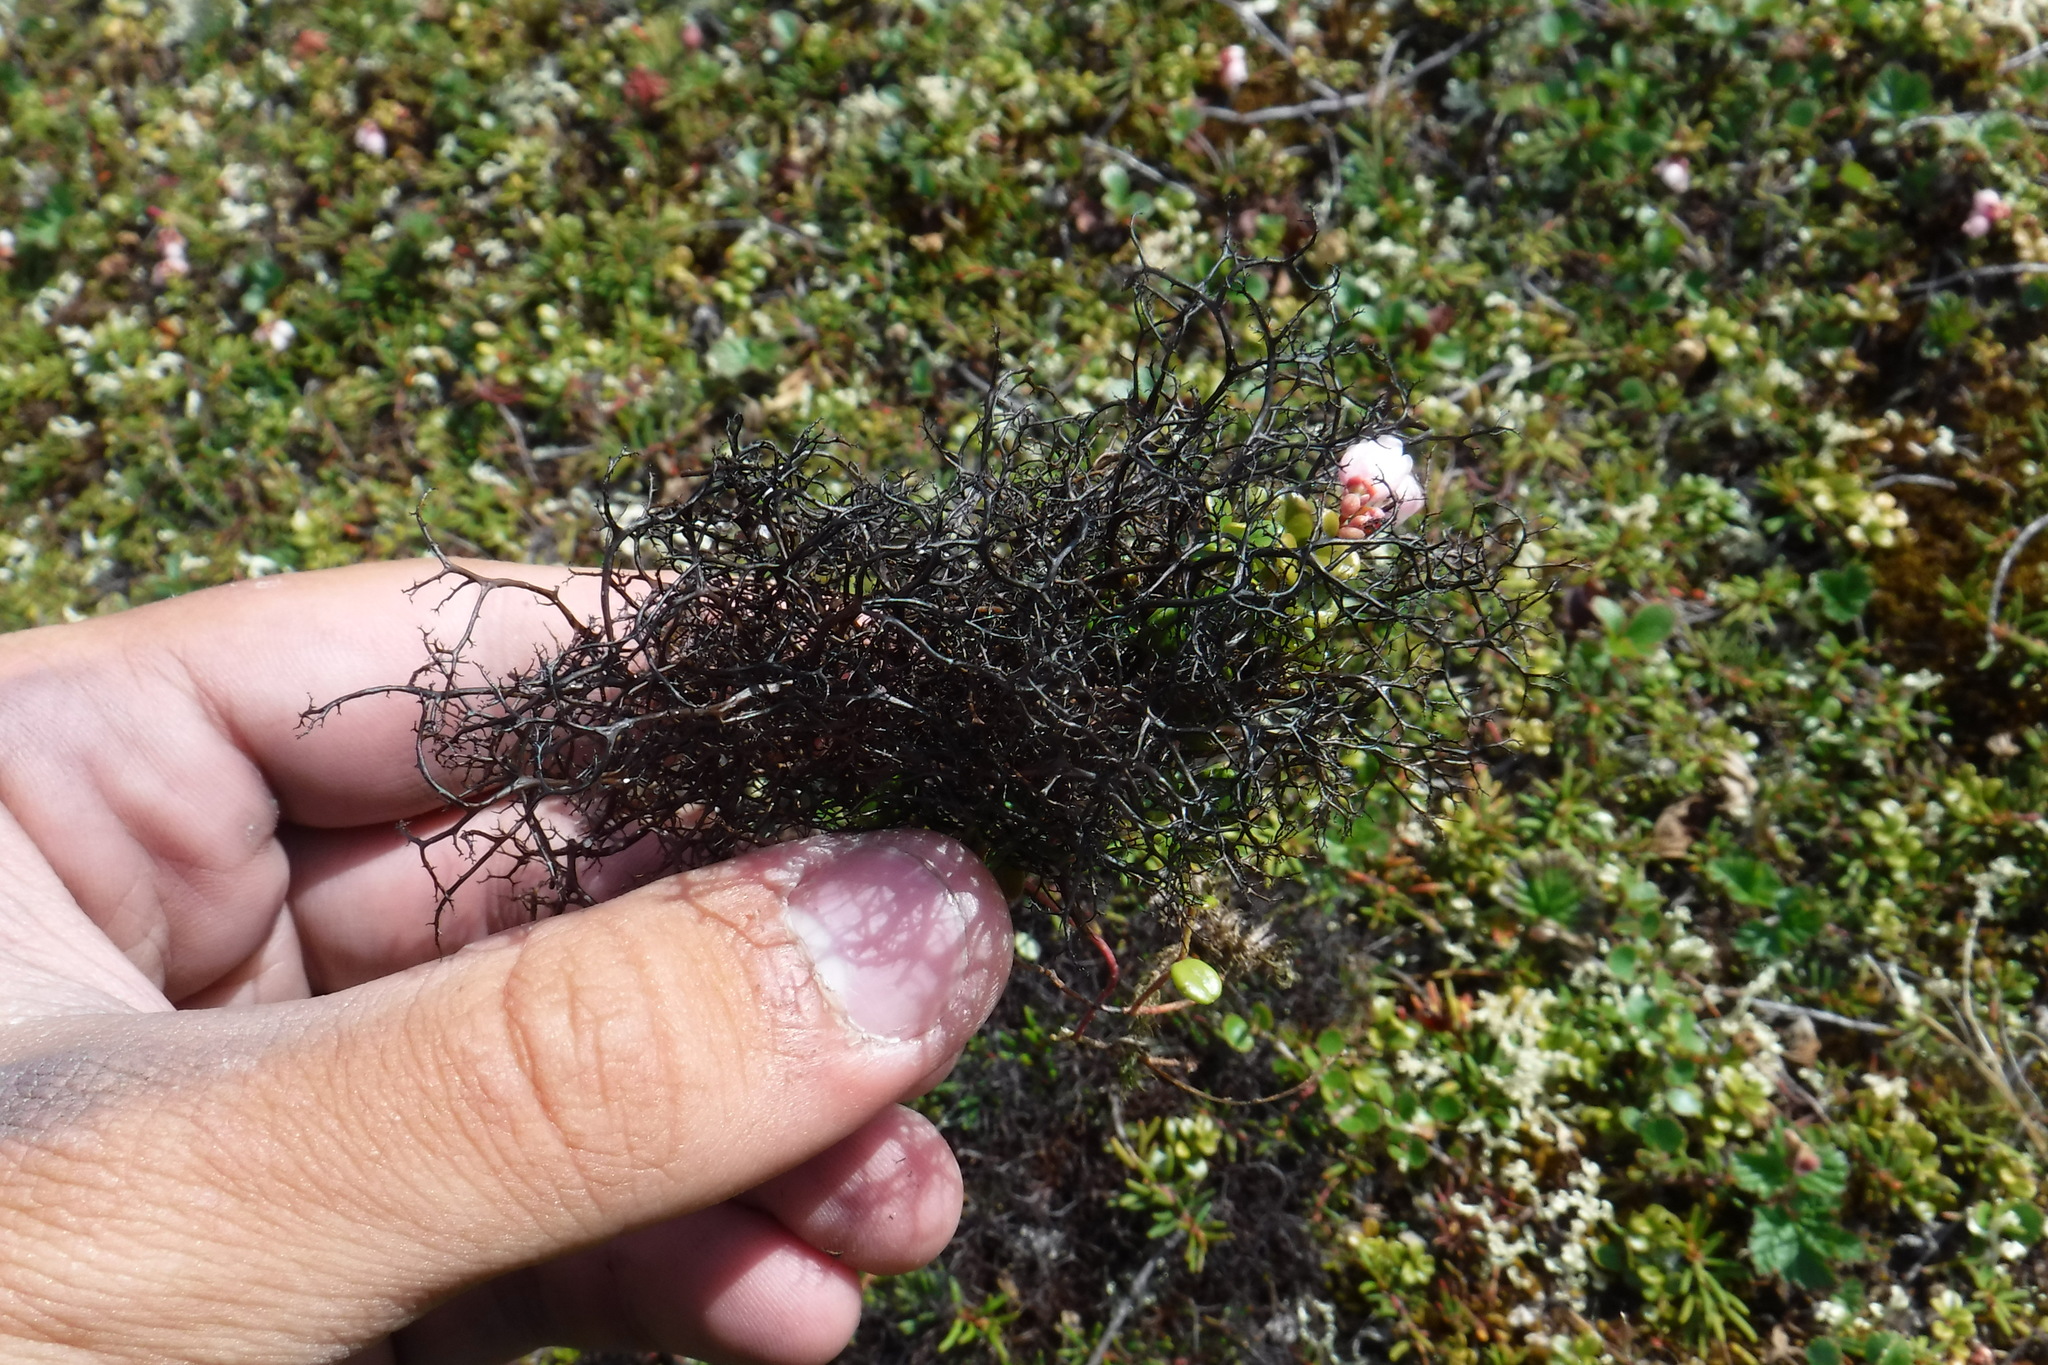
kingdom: Fungi
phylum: Ascomycota
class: Lecanoromycetes
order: Lecanorales
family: Parmeliaceae
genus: Cetraria
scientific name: Cetraria aculeata
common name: Spiny heath lichen
